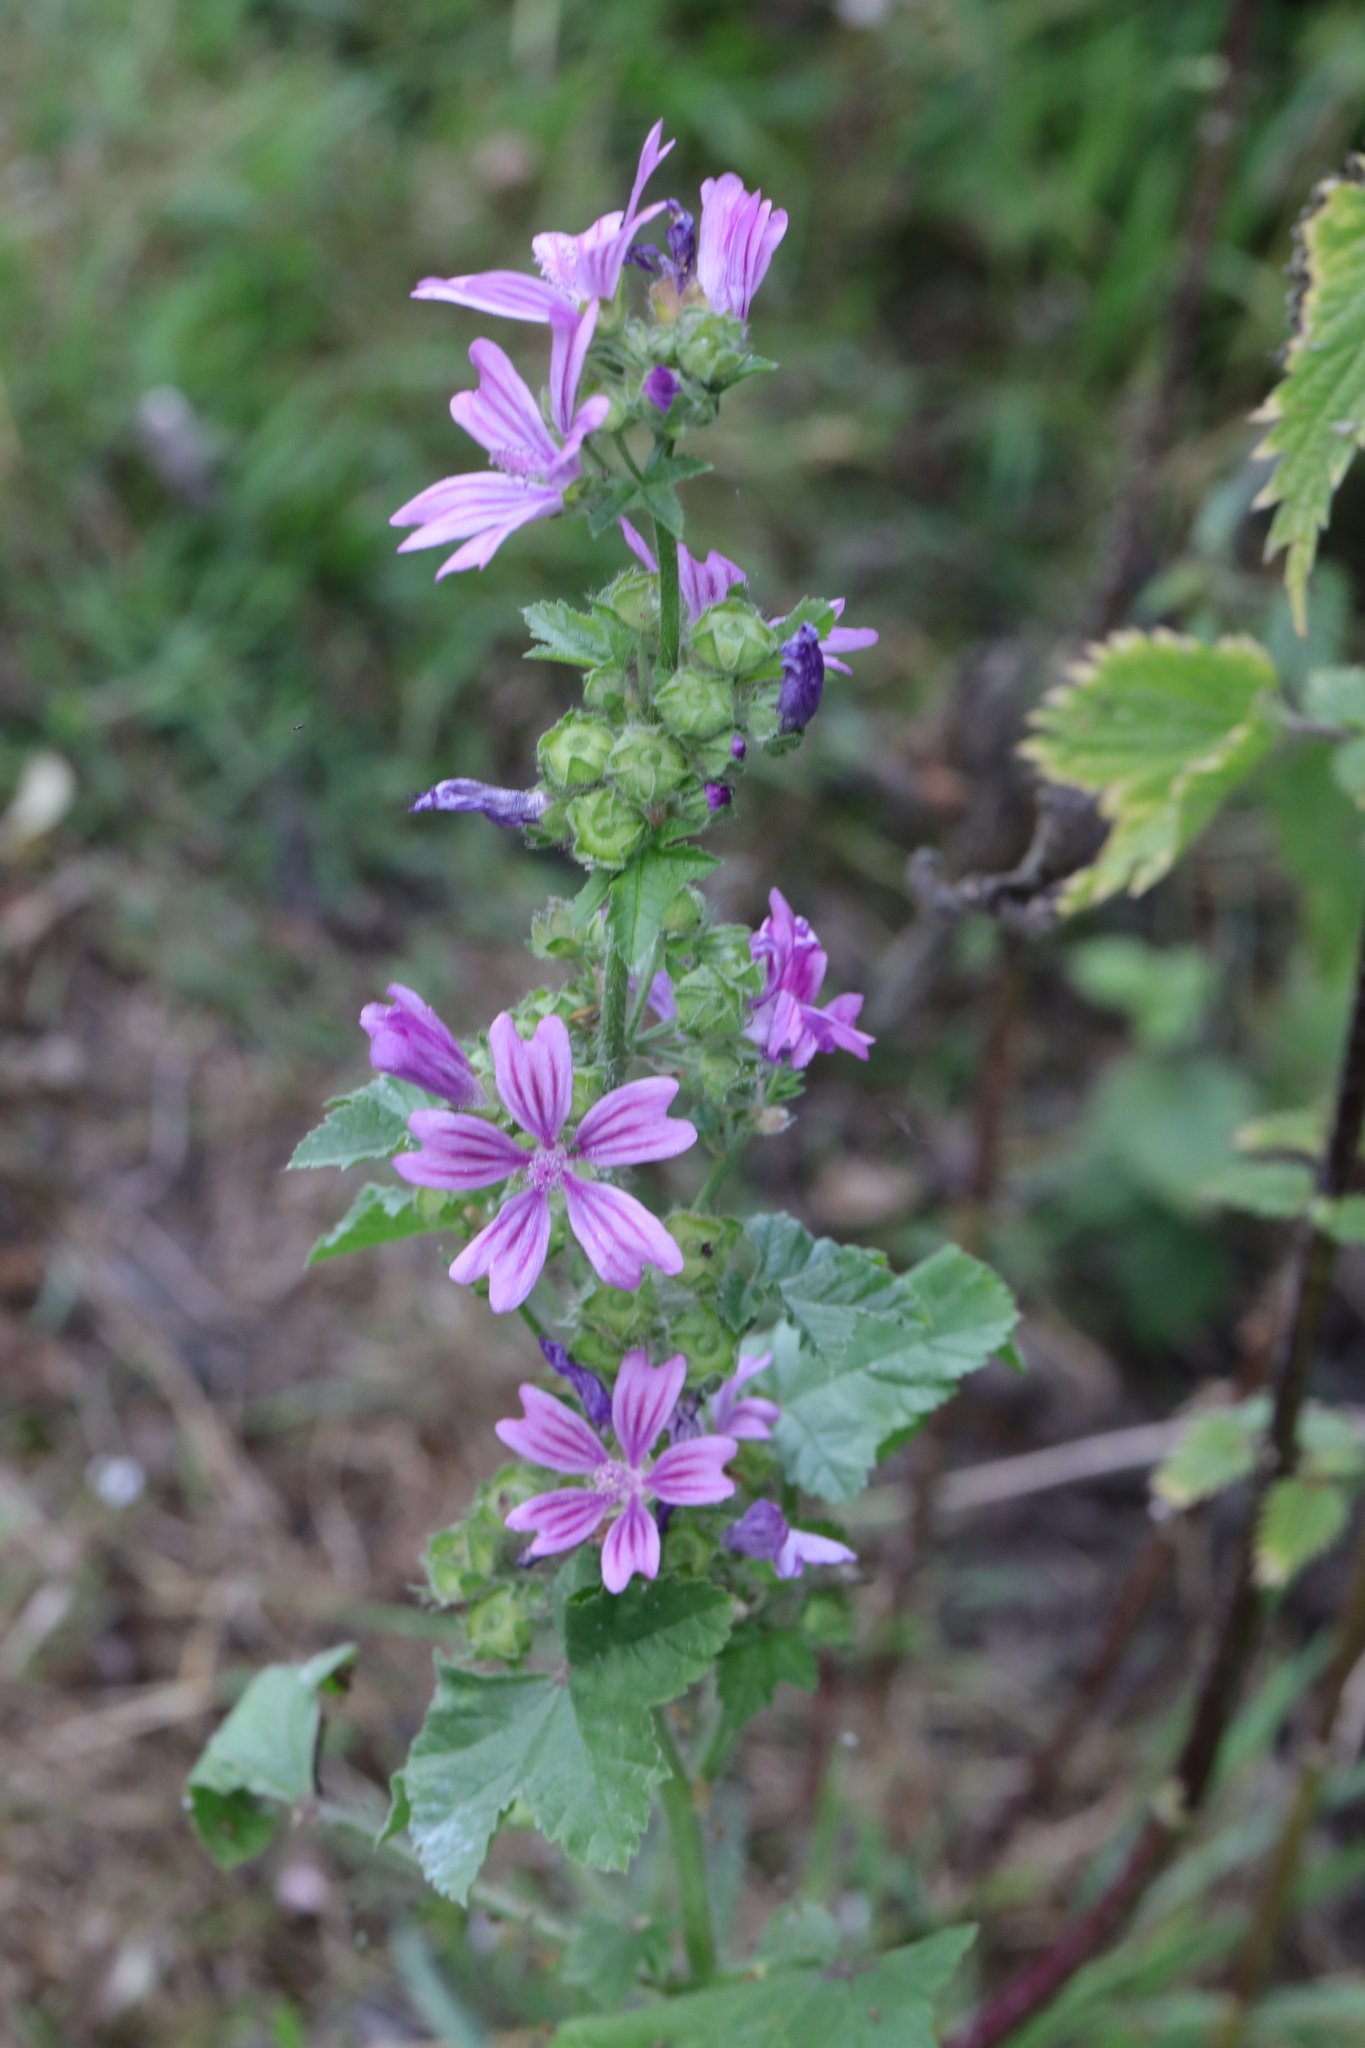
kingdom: Plantae
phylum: Tracheophyta
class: Magnoliopsida
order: Malvales
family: Malvaceae
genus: Malva
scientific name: Malva sylvestris
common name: Common mallow
